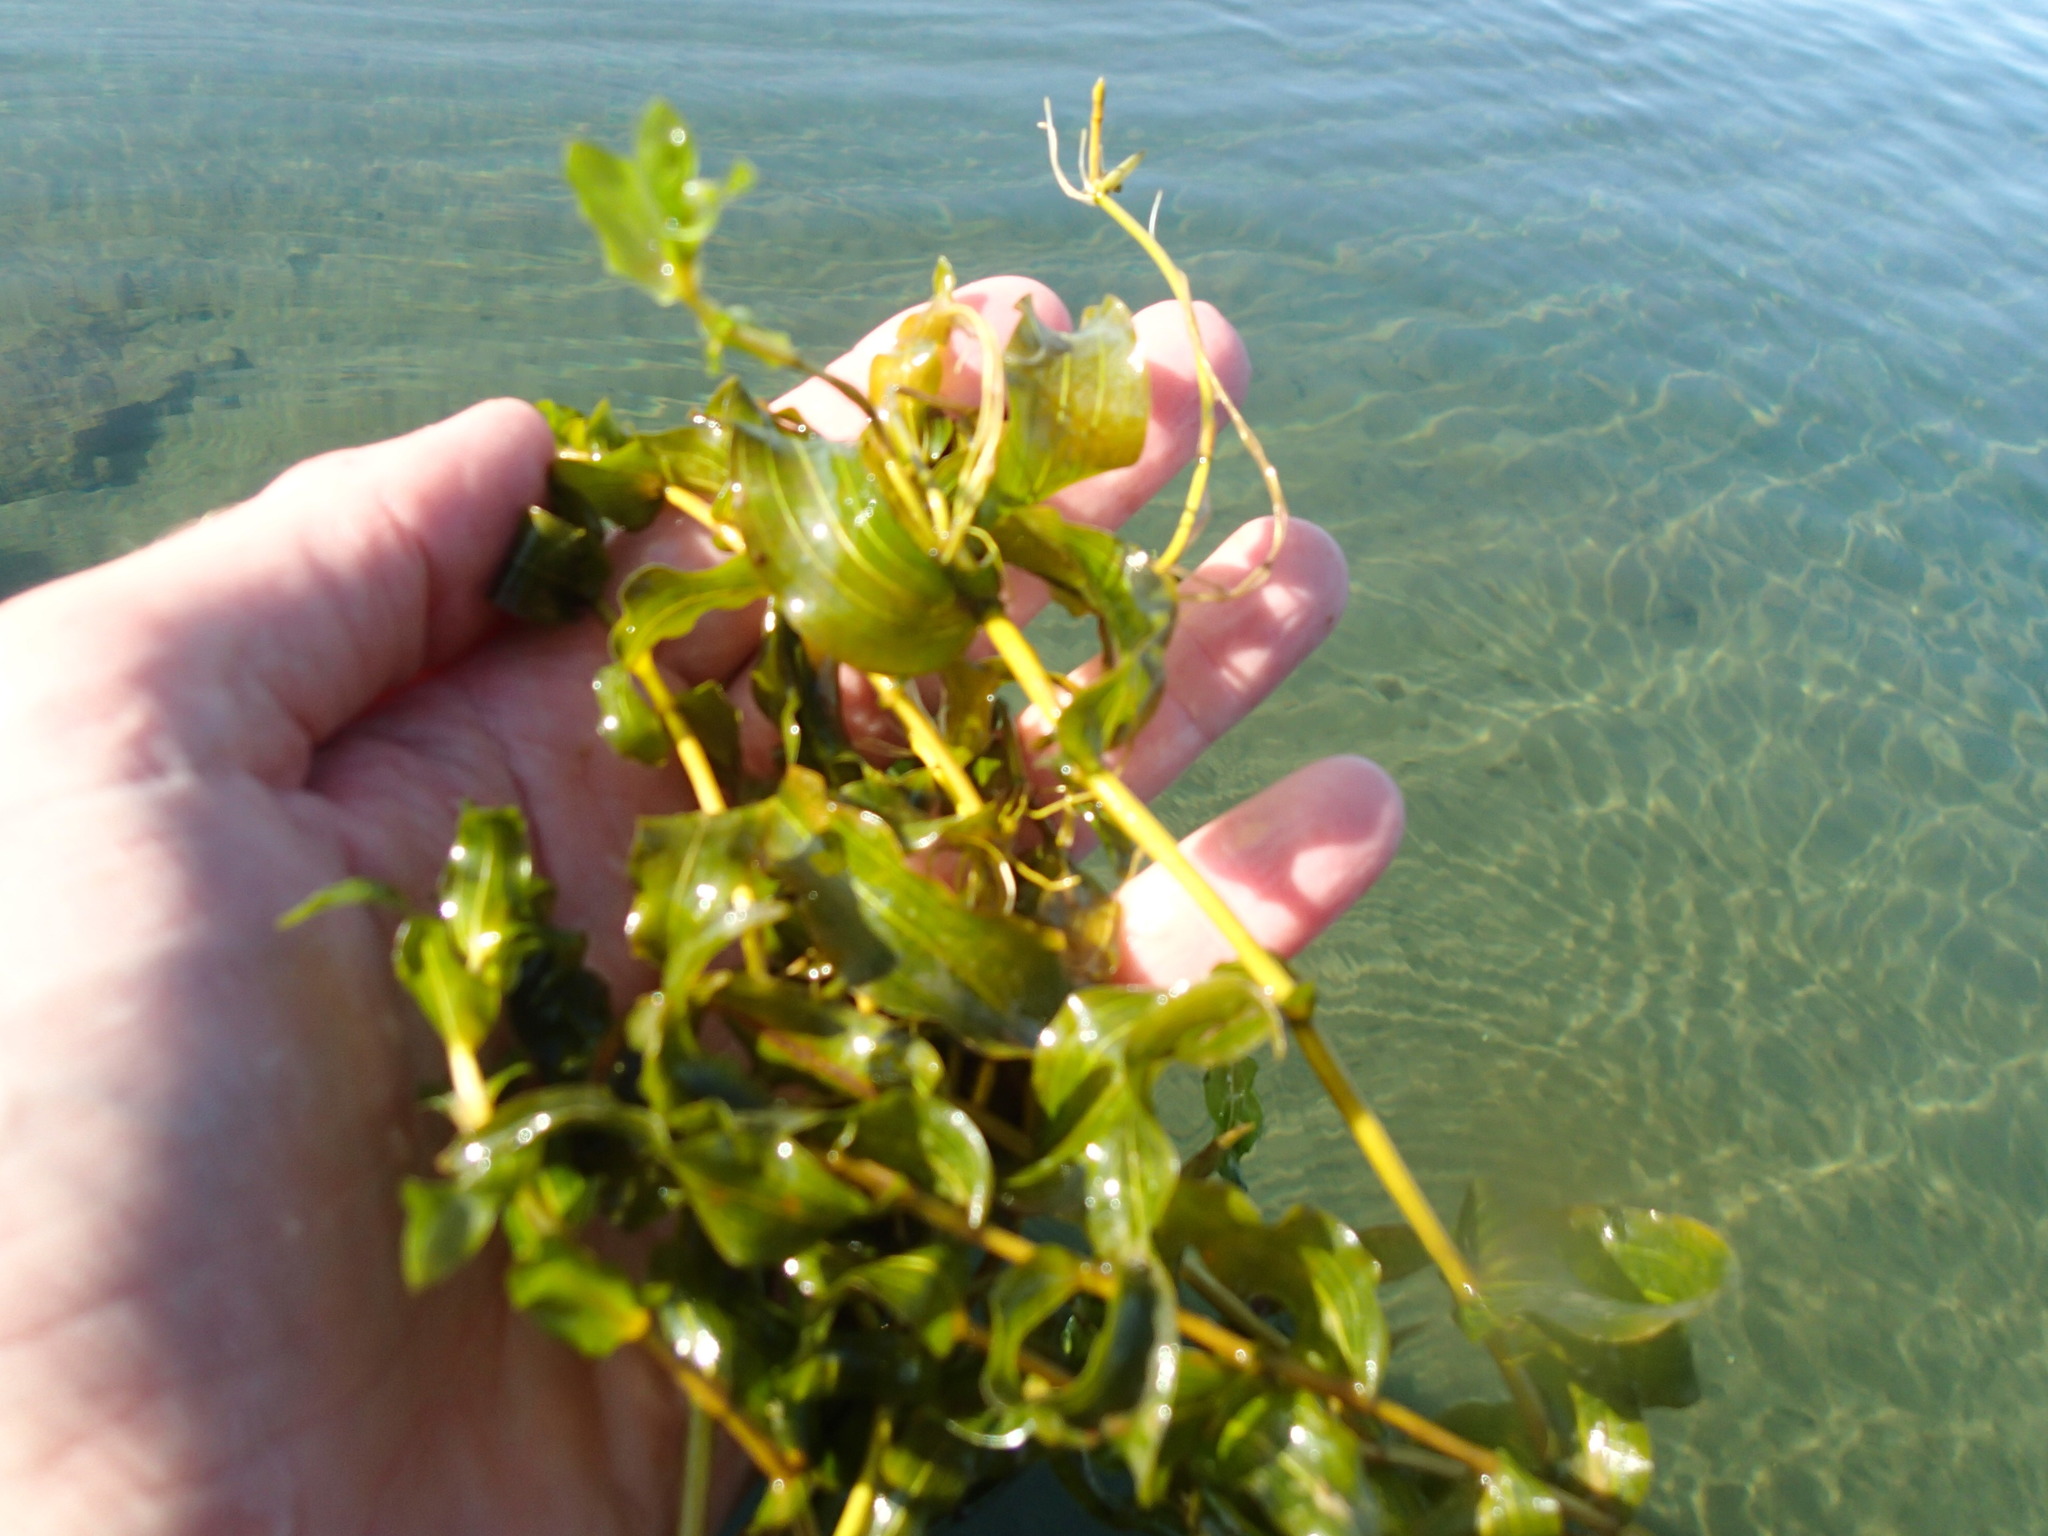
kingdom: Plantae
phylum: Tracheophyta
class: Liliopsida
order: Alismatales
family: Potamogetonaceae
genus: Potamogeton
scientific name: Potamogeton richardsonii
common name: Richardson's pondweed
